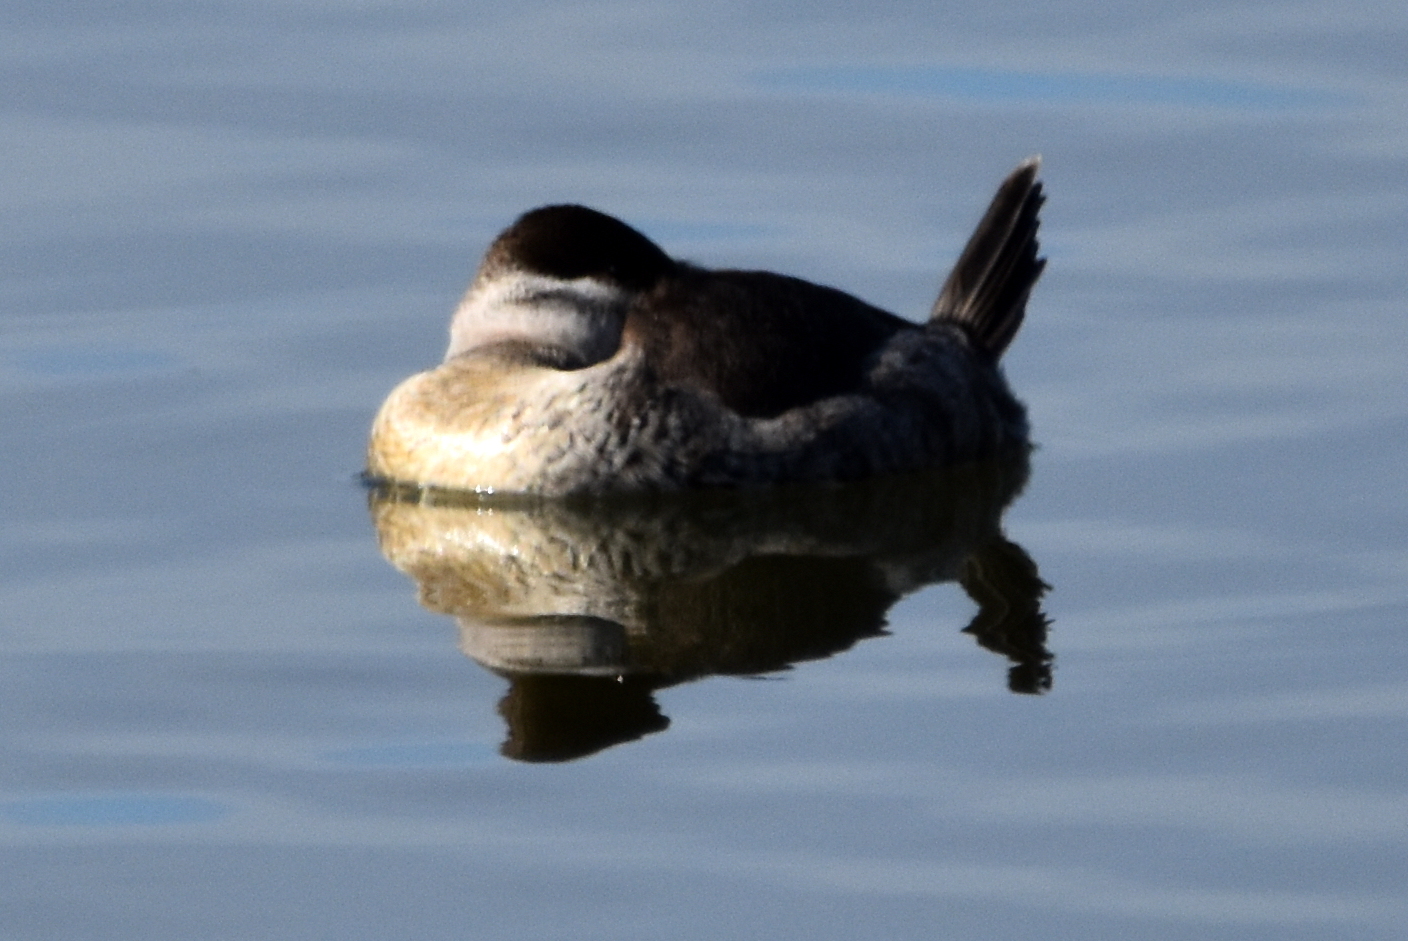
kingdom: Animalia
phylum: Chordata
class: Aves
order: Anseriformes
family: Anatidae
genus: Oxyura
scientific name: Oxyura jamaicensis
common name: Ruddy duck
